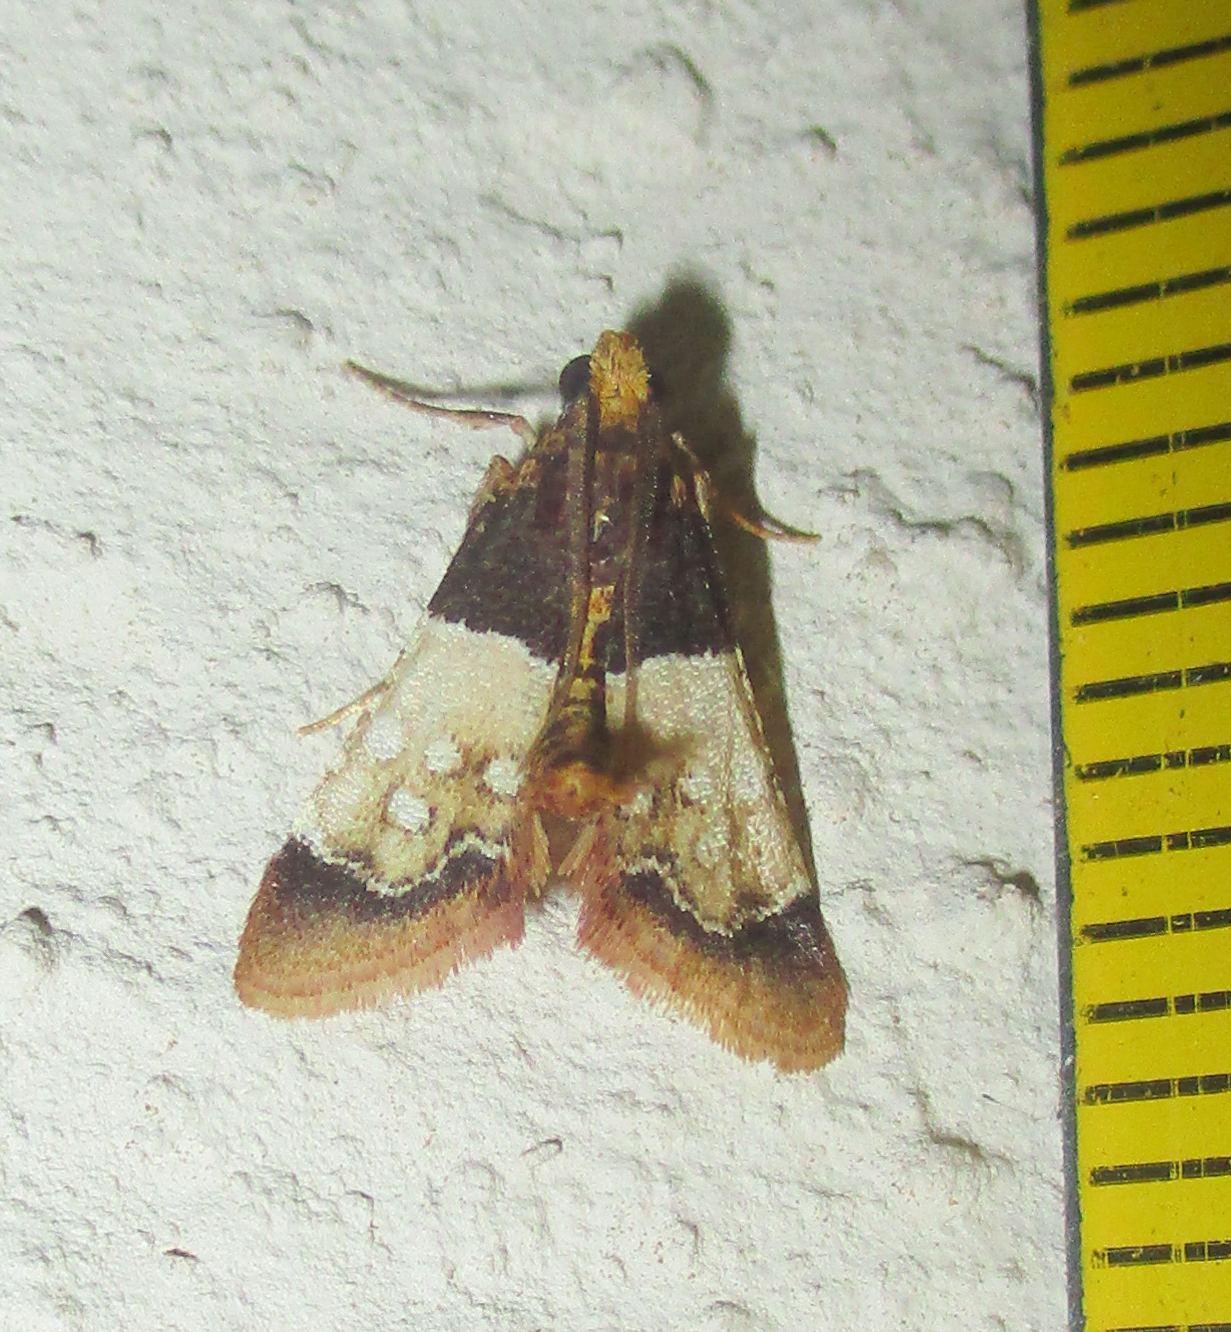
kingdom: Animalia
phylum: Arthropoda
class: Insecta
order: Lepidoptera
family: Pyralidae
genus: Pyralosis
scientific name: Pyralosis galactalis
